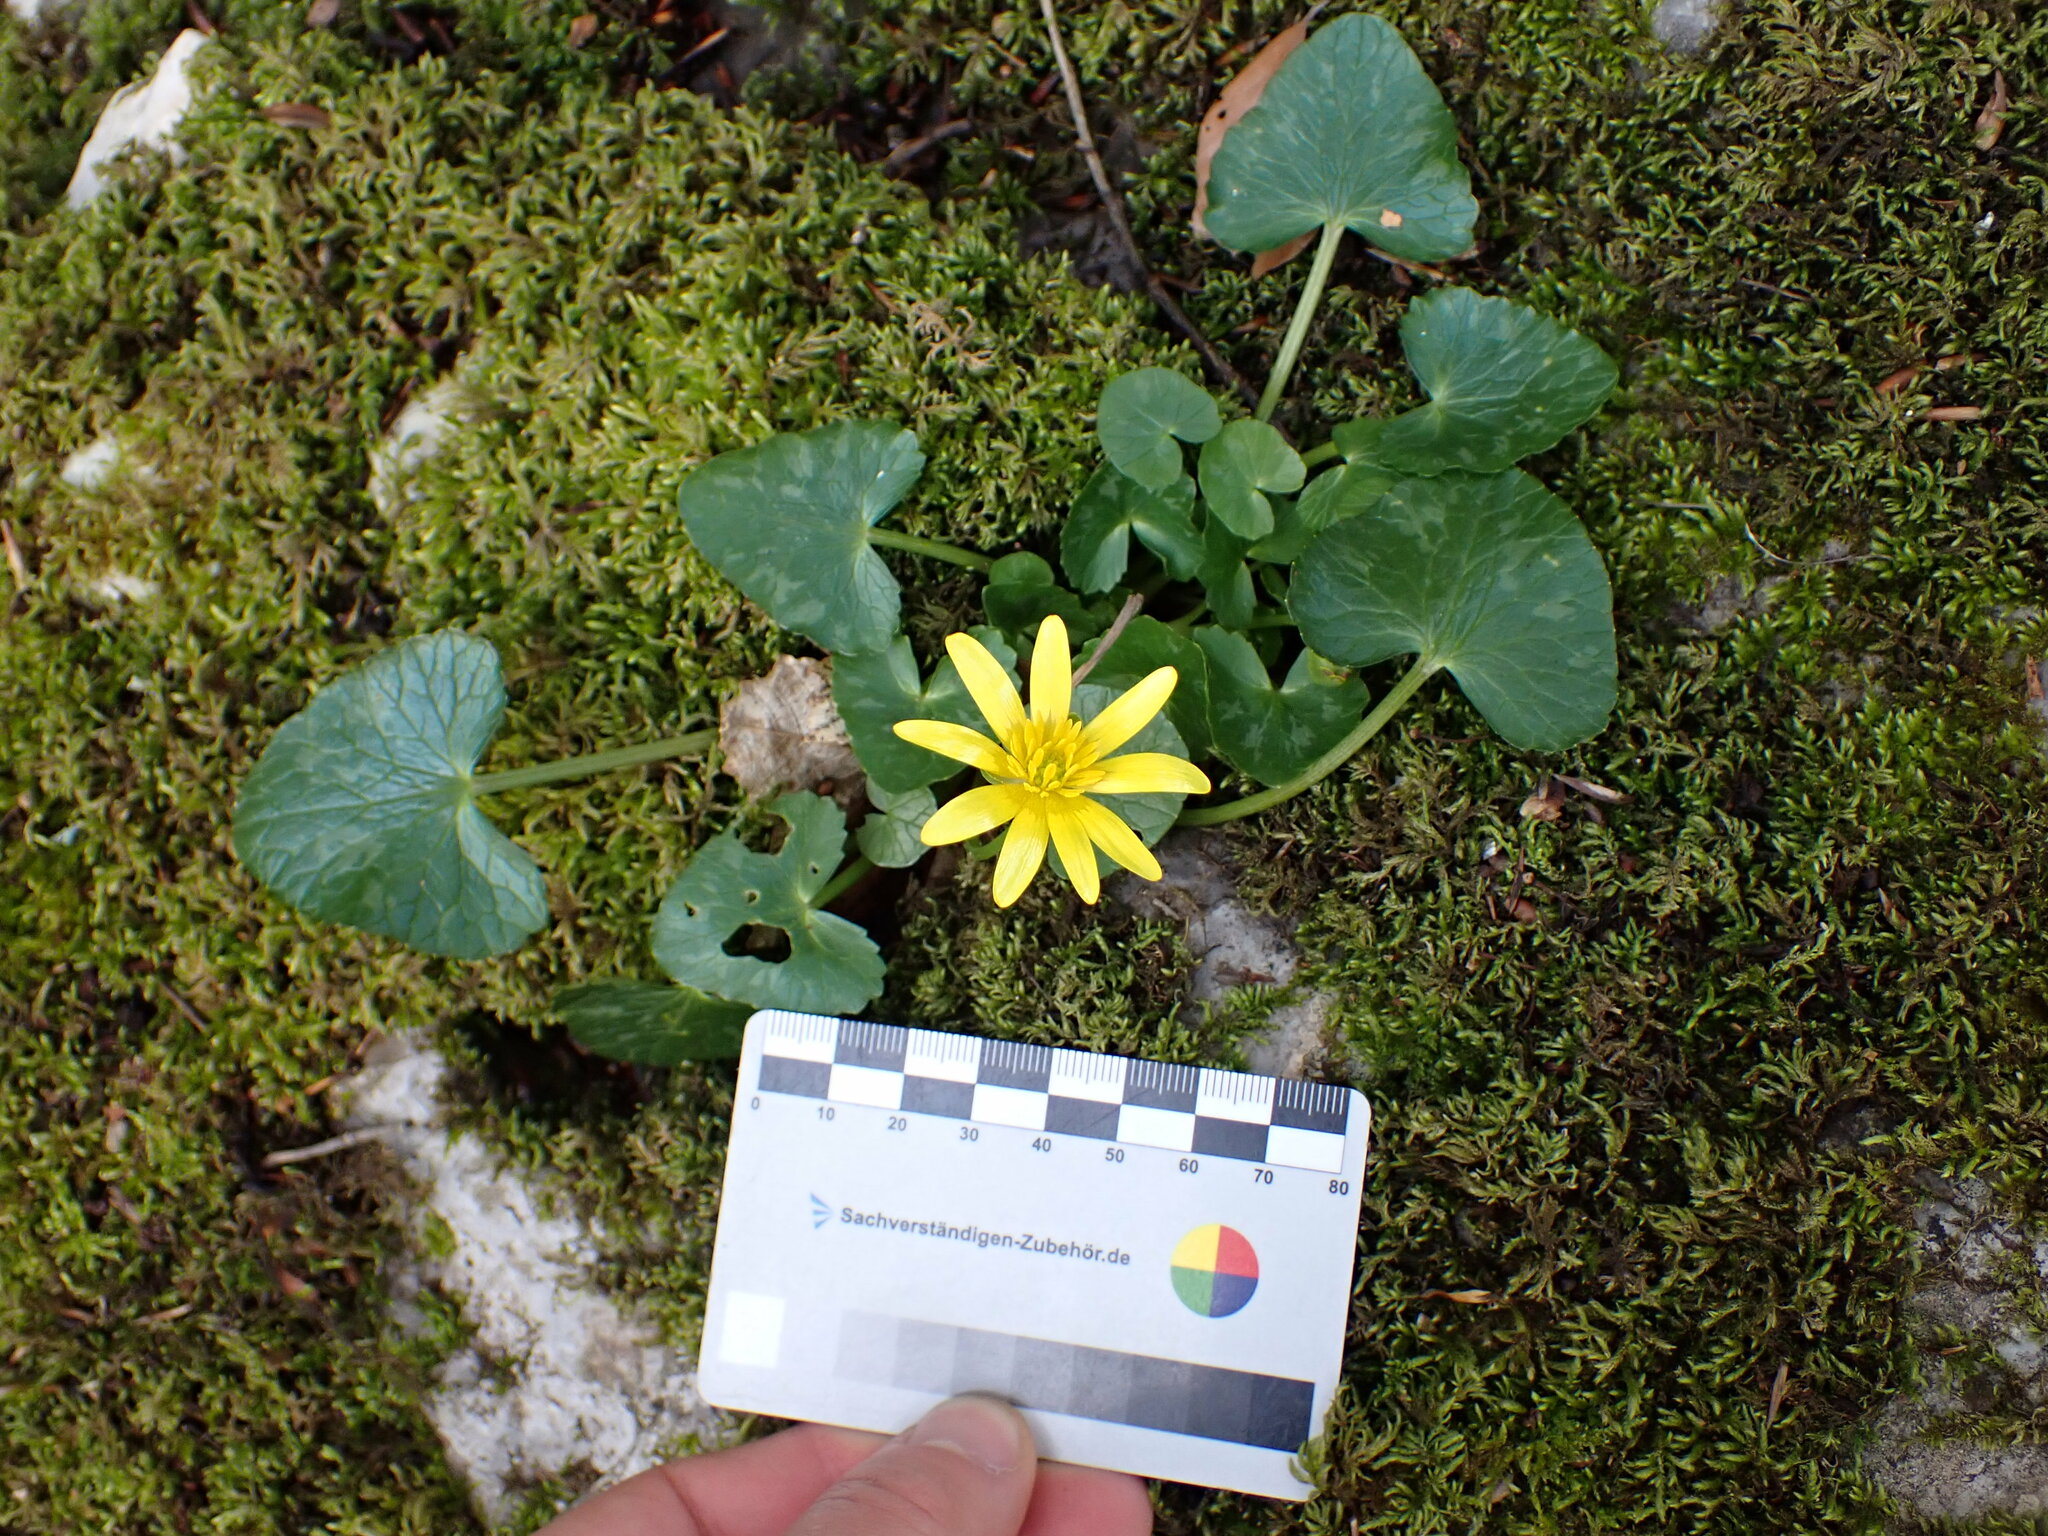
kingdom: Plantae
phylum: Tracheophyta
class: Magnoliopsida
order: Ranunculales
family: Ranunculaceae
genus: Ficaria
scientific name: Ficaria verna
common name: Lesser celandine
